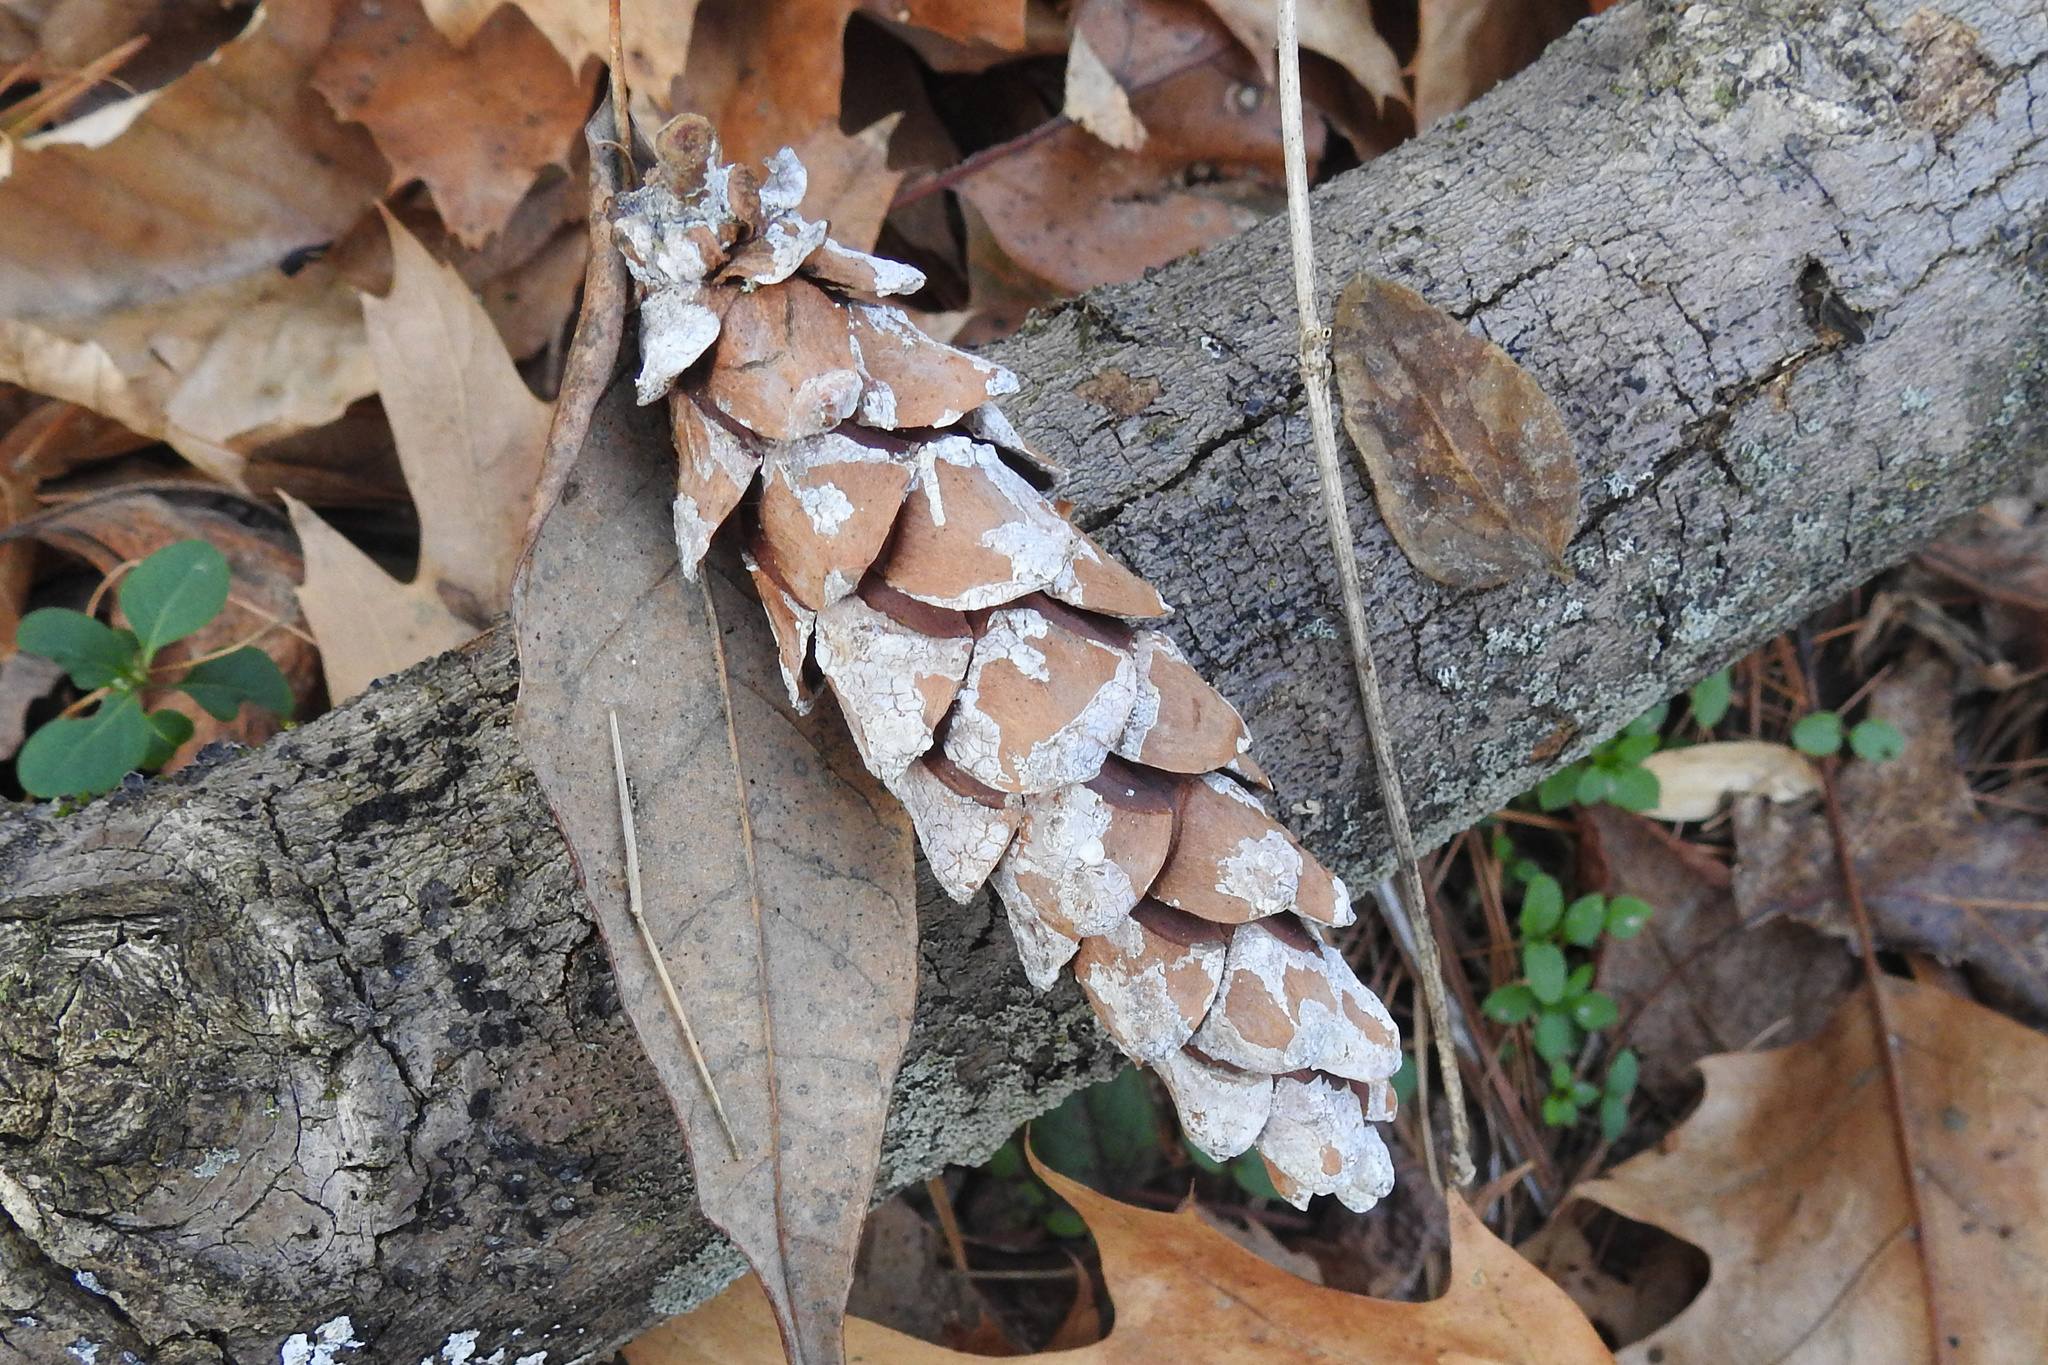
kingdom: Plantae
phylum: Tracheophyta
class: Pinopsida
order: Pinales
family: Pinaceae
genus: Pinus
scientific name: Pinus strobus
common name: Weymouth pine
